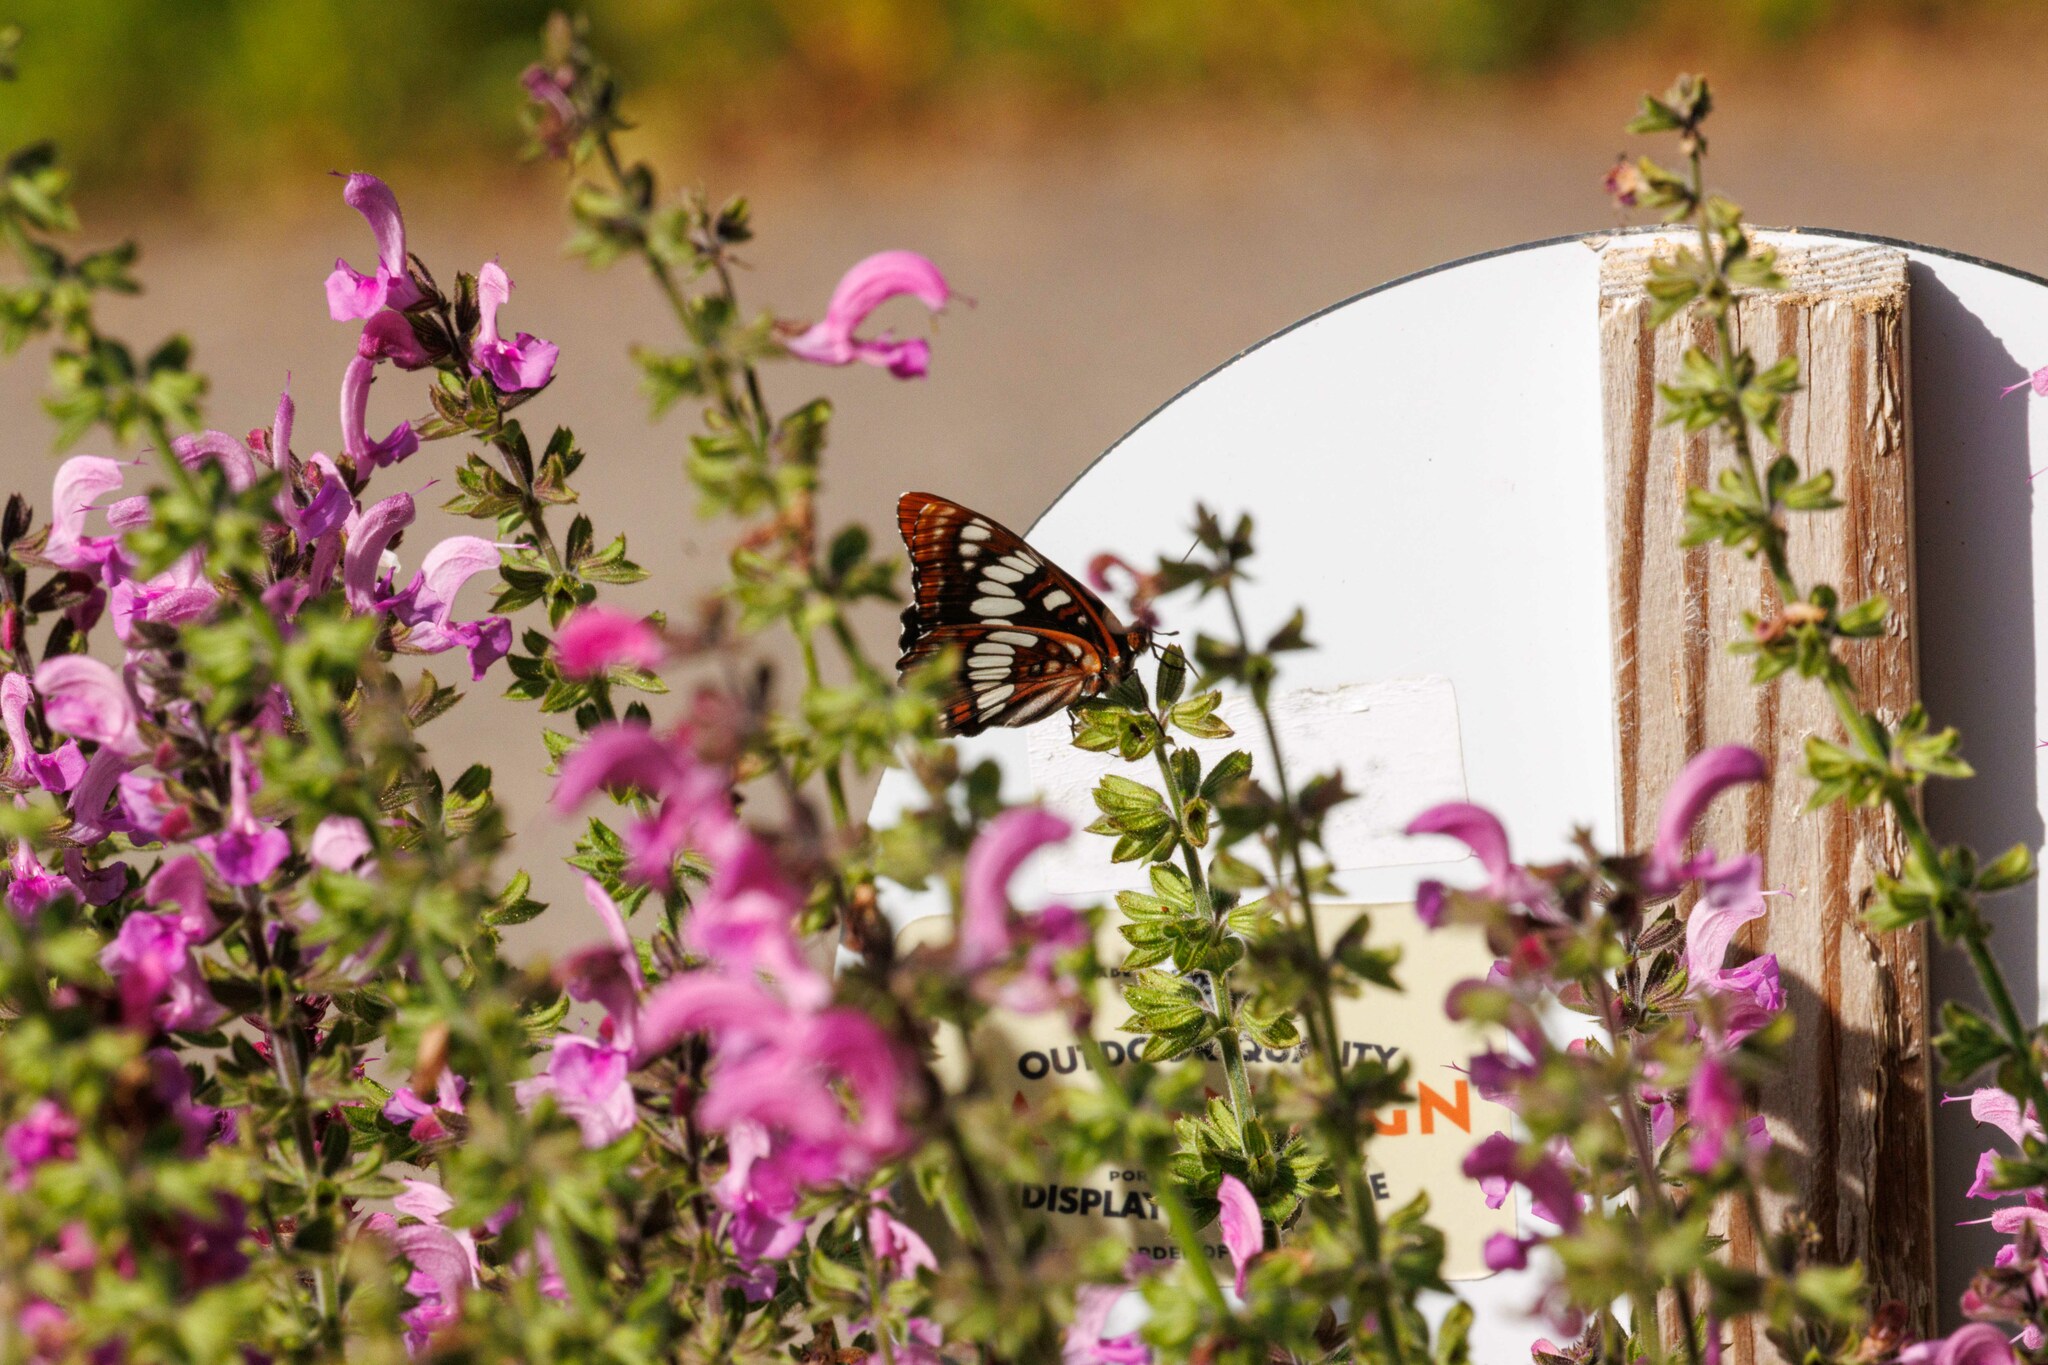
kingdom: Animalia
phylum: Arthropoda
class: Insecta
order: Lepidoptera
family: Nymphalidae
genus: Limenitis
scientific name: Limenitis lorquini
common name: Lorquin's admiral
